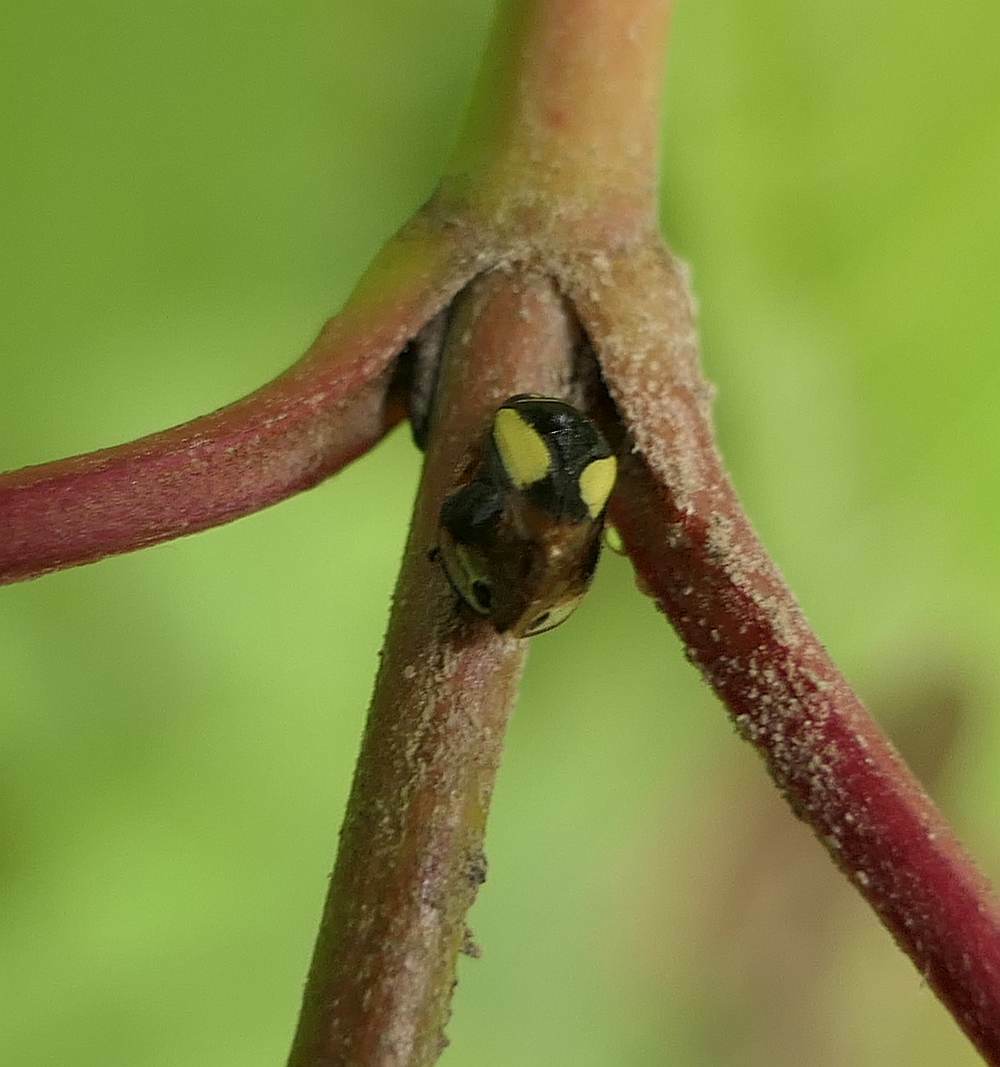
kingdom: Animalia
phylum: Arthropoda
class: Insecta
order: Hemiptera
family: Clastopteridae
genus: Clastoptera
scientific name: Clastoptera proteus
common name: Dogwood spittlebug
